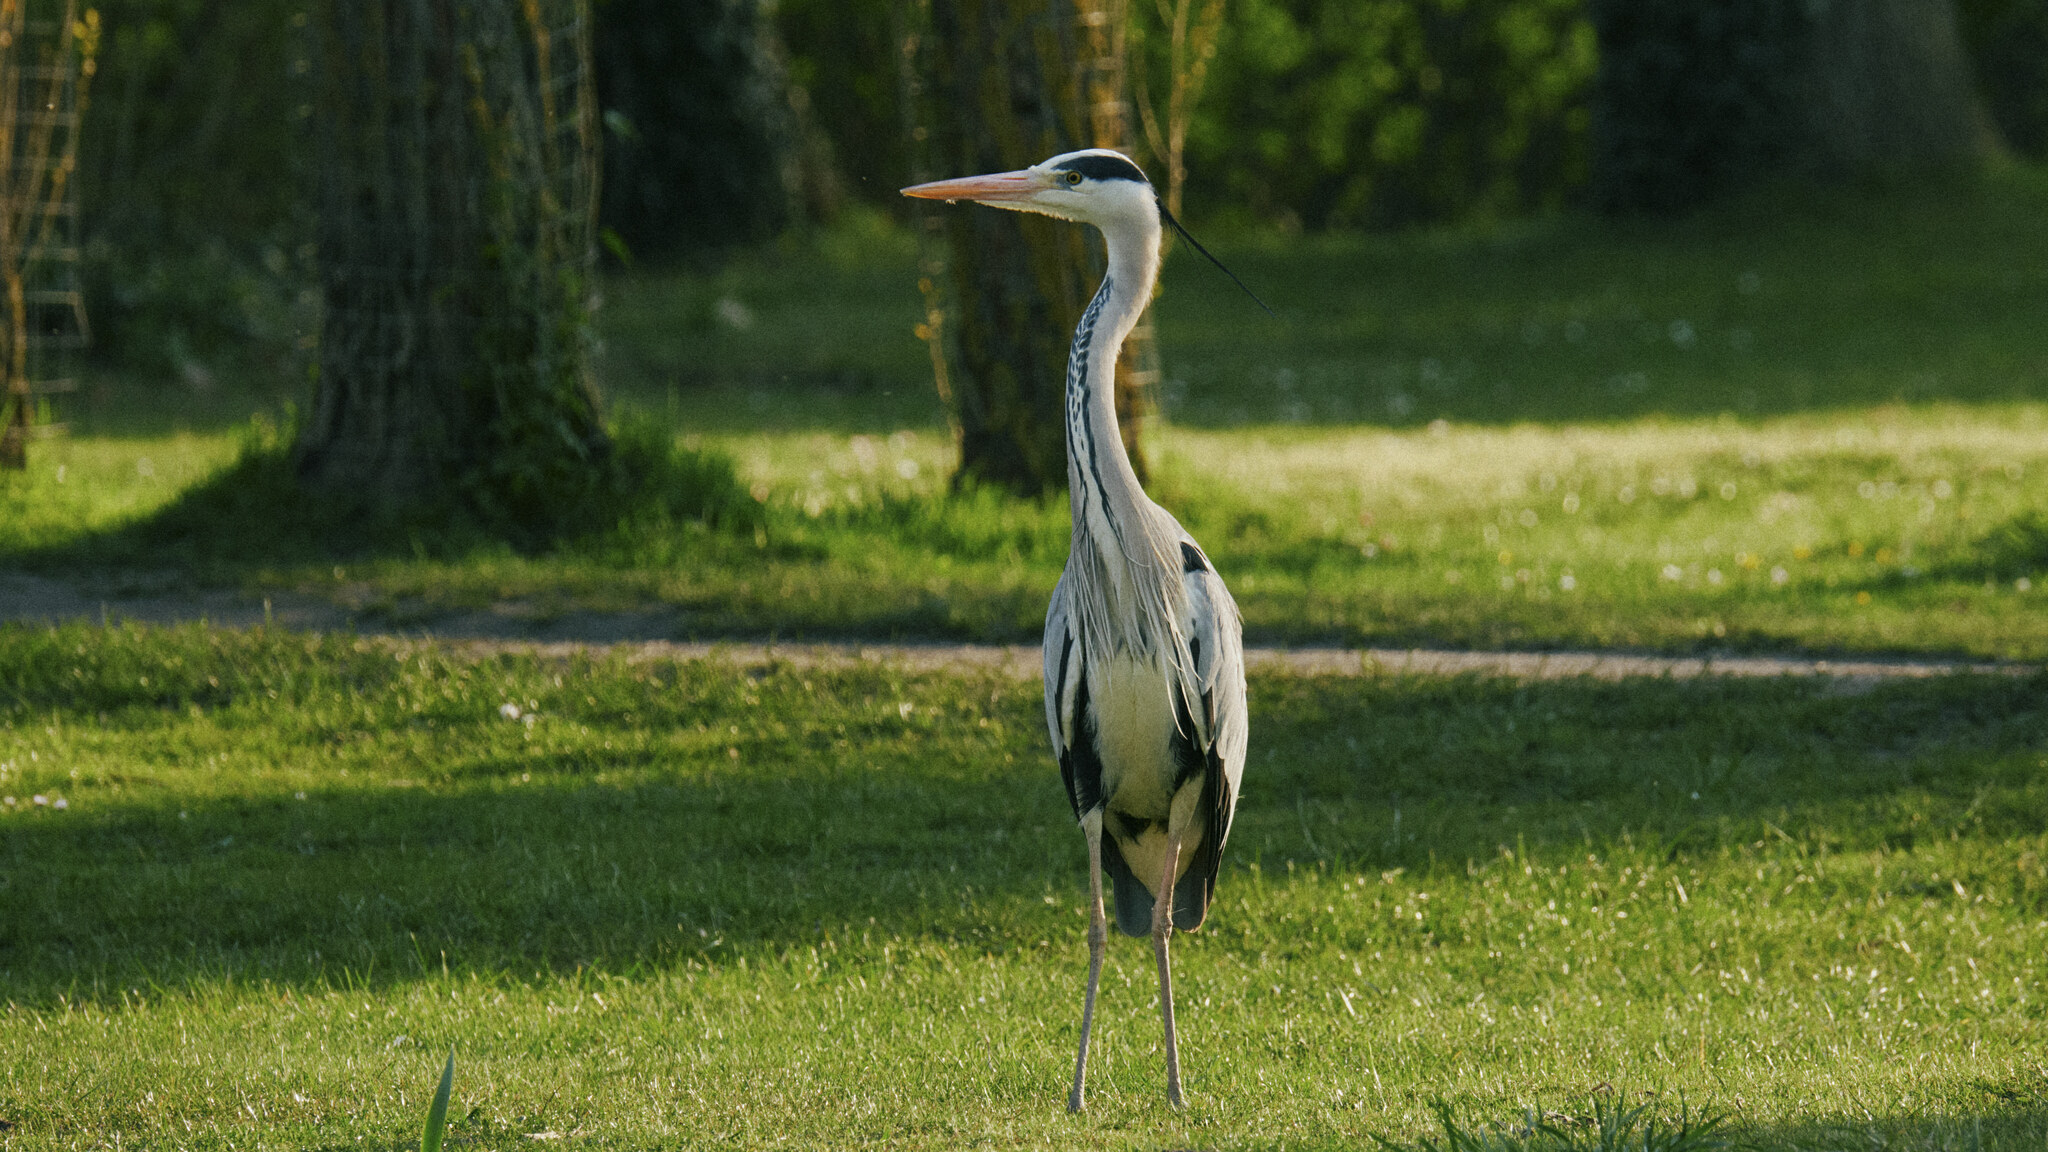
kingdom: Animalia
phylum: Chordata
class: Aves
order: Pelecaniformes
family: Ardeidae
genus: Ardea
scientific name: Ardea cinerea
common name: Grey heron
